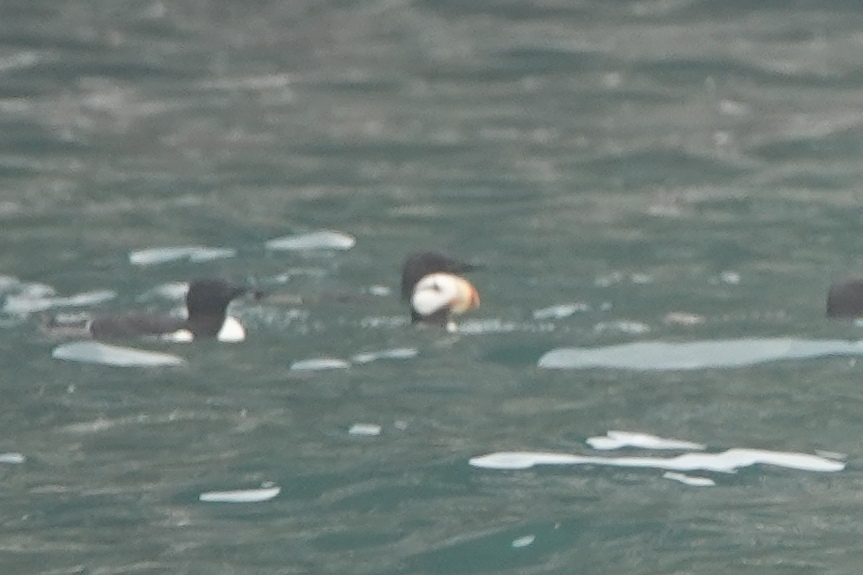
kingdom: Animalia
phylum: Chordata
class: Aves
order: Charadriiformes
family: Alcidae
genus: Fratercula
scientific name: Fratercula corniculata
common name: Horned puffin
